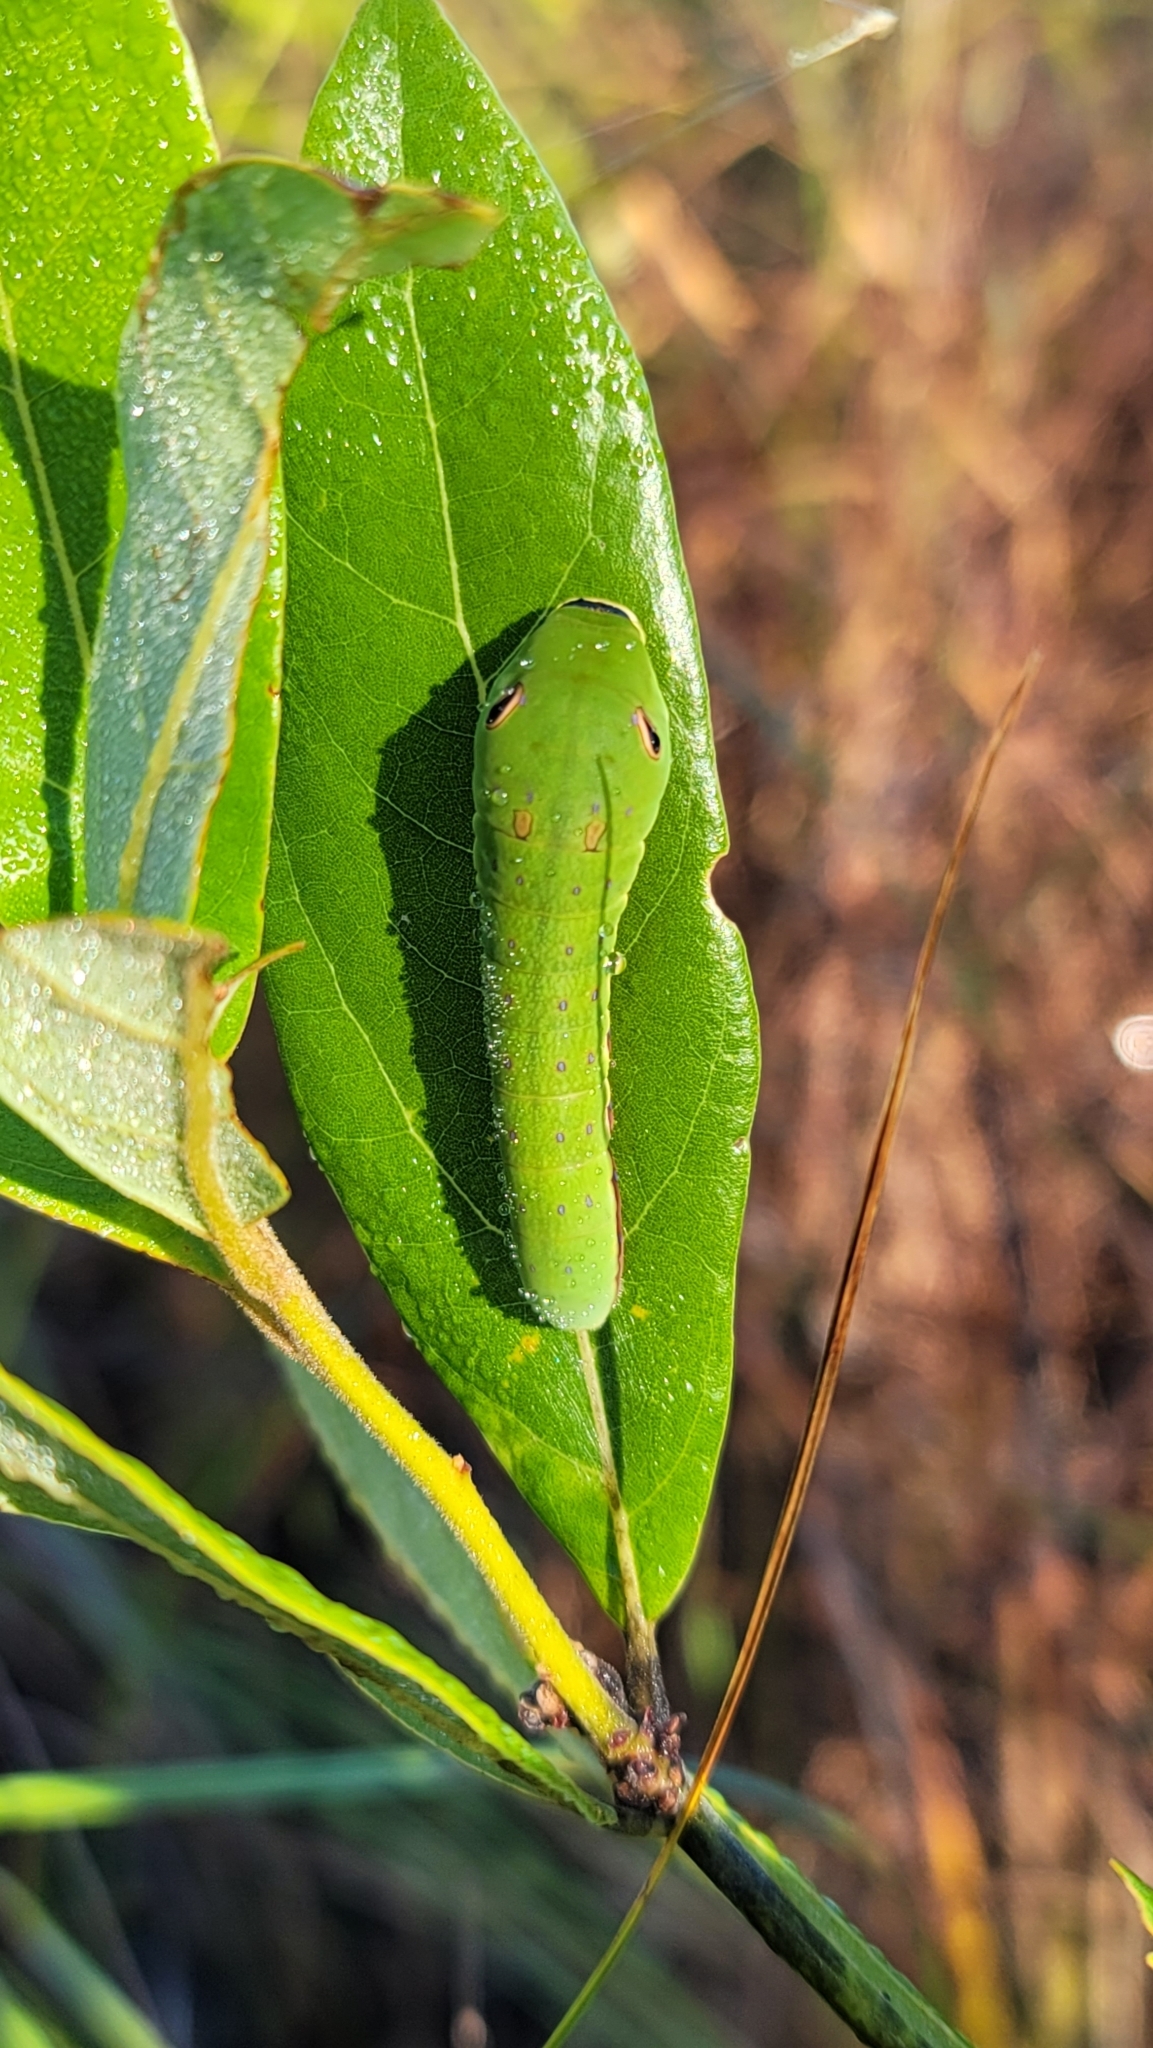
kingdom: Animalia
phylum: Arthropoda
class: Insecta
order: Lepidoptera
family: Papilionidae
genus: Papilio
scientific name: Papilio palamedes
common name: Palamedes swallowtail
